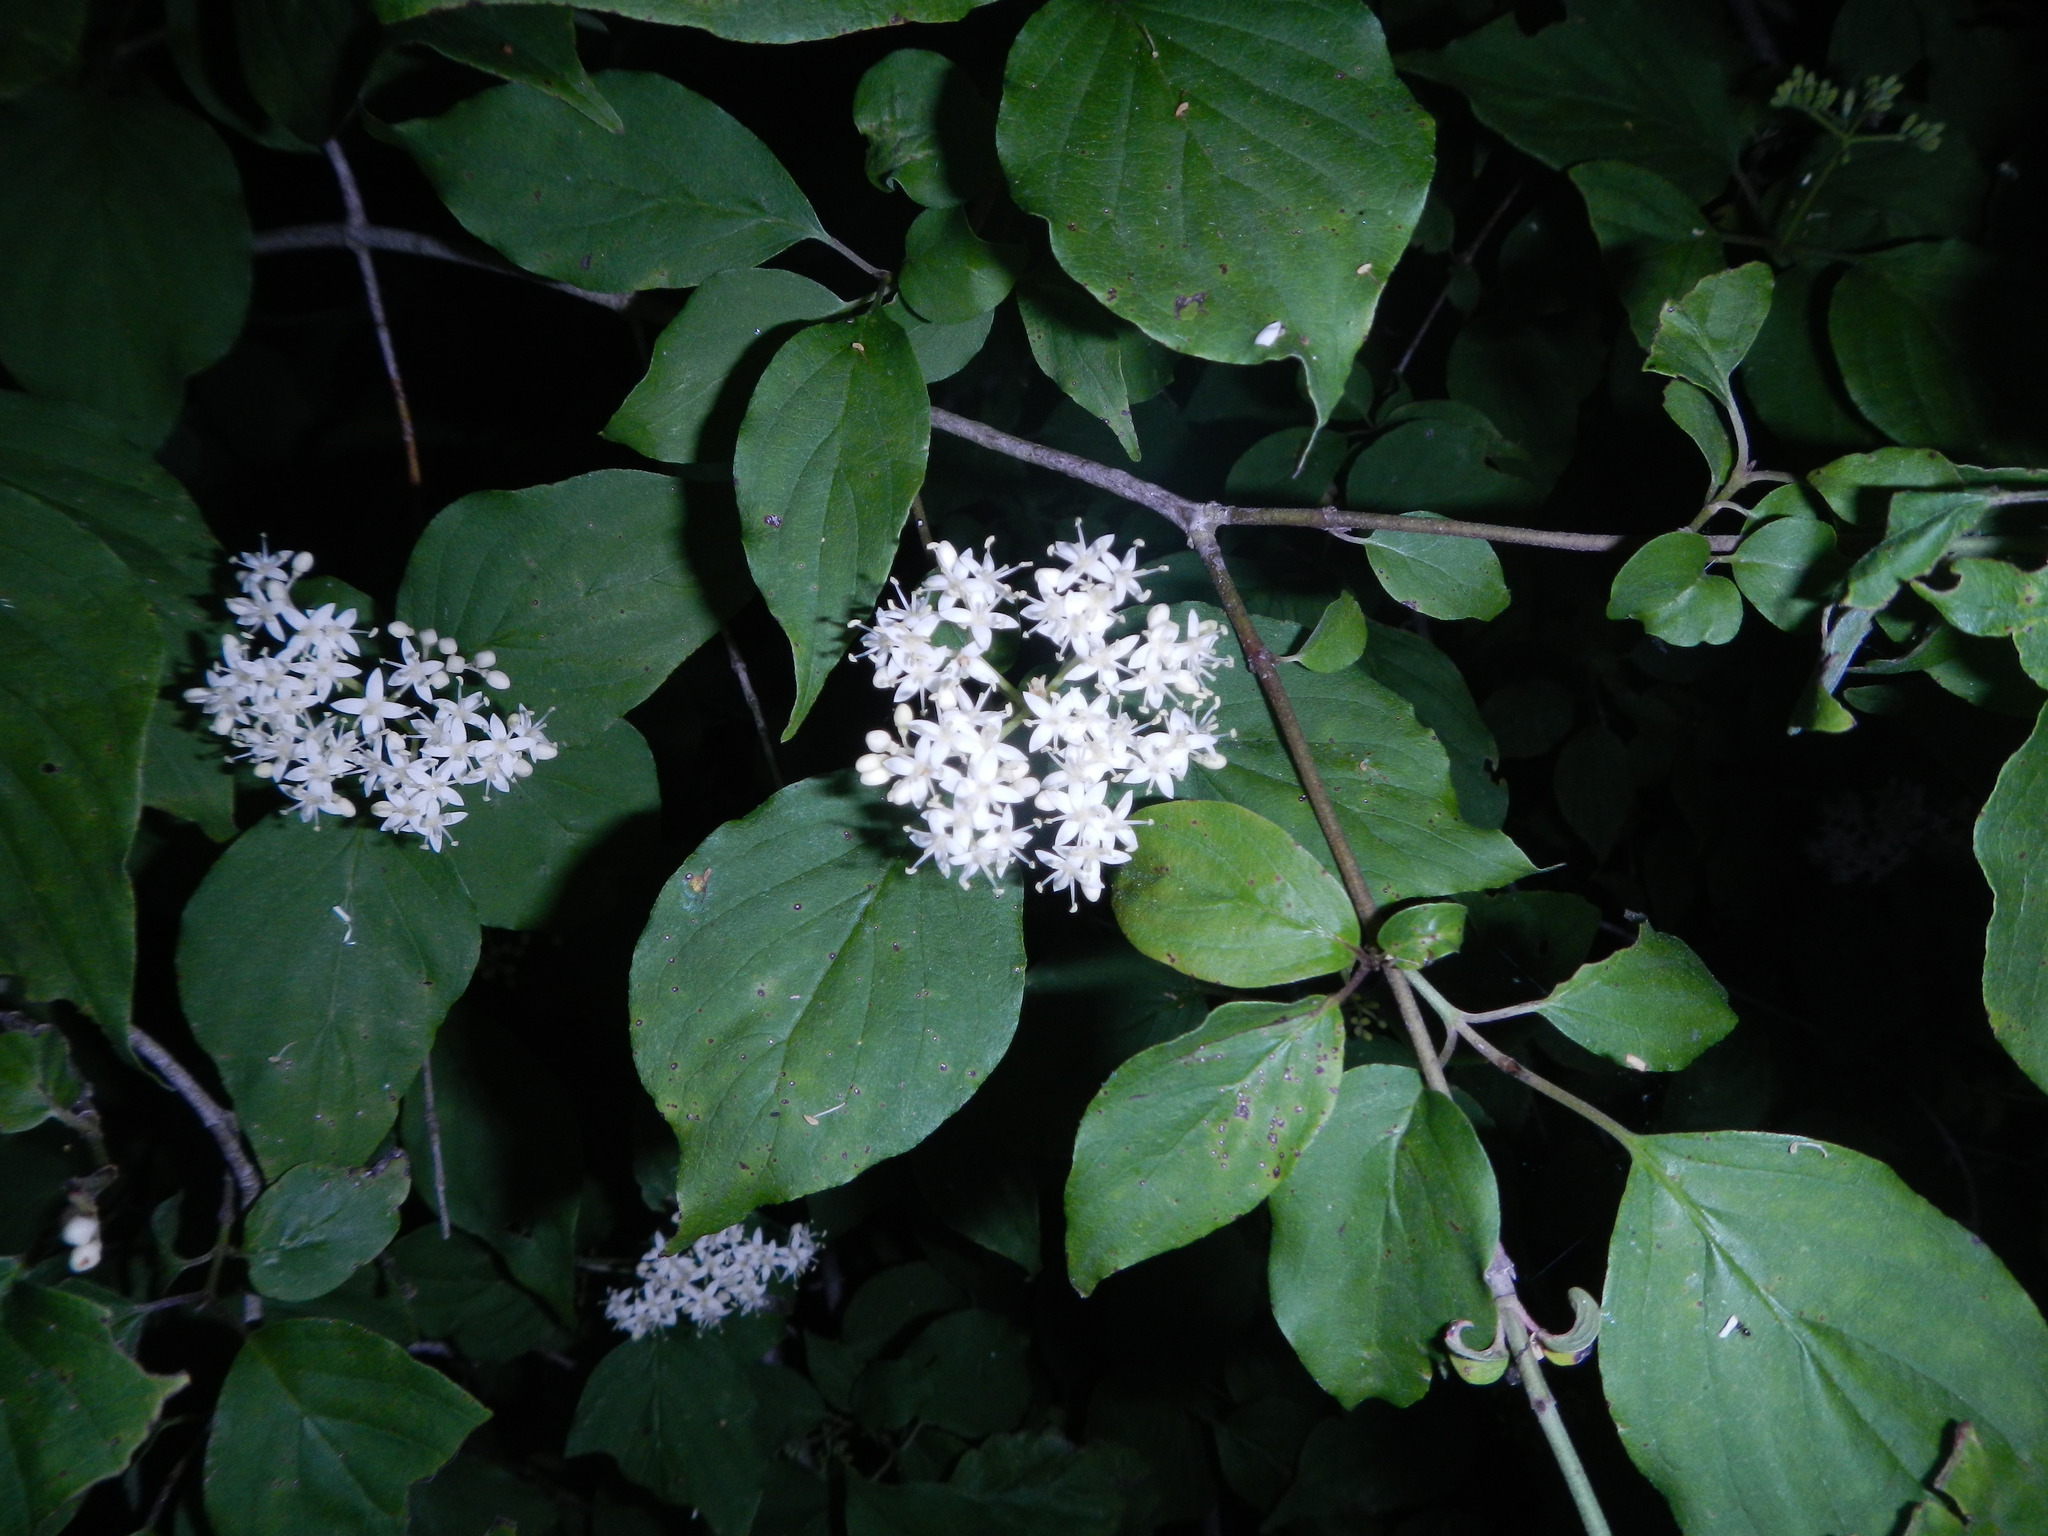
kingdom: Plantae
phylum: Tracheophyta
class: Magnoliopsida
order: Cornales
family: Cornaceae
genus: Cornus
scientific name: Cornus drummondii
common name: Rough-leaf dogwood
